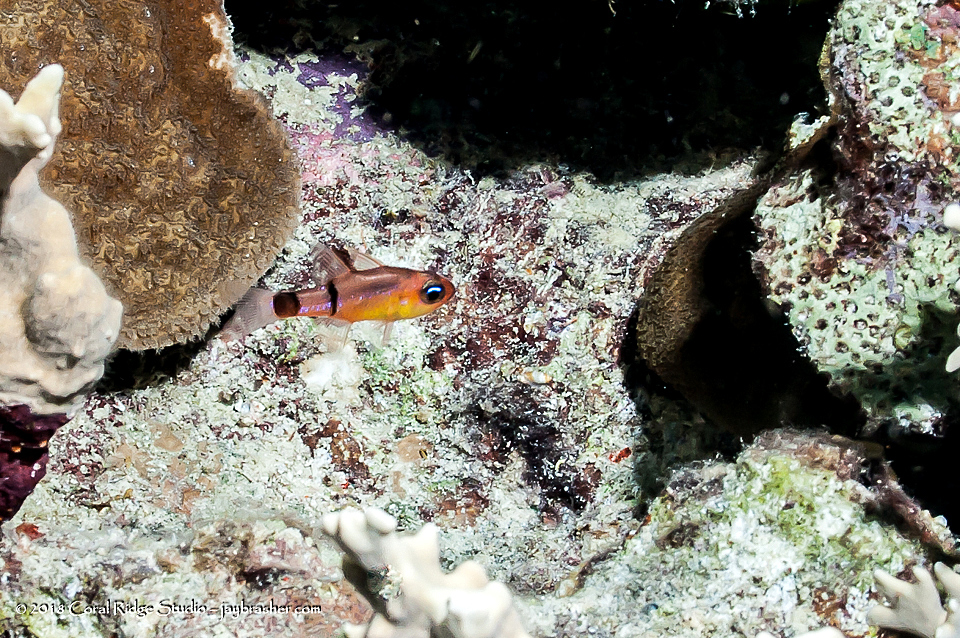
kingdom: Animalia
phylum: Chordata
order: Perciformes
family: Apogonidae
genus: Apogon
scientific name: Apogon townsendi
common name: Belted cardinalfish
